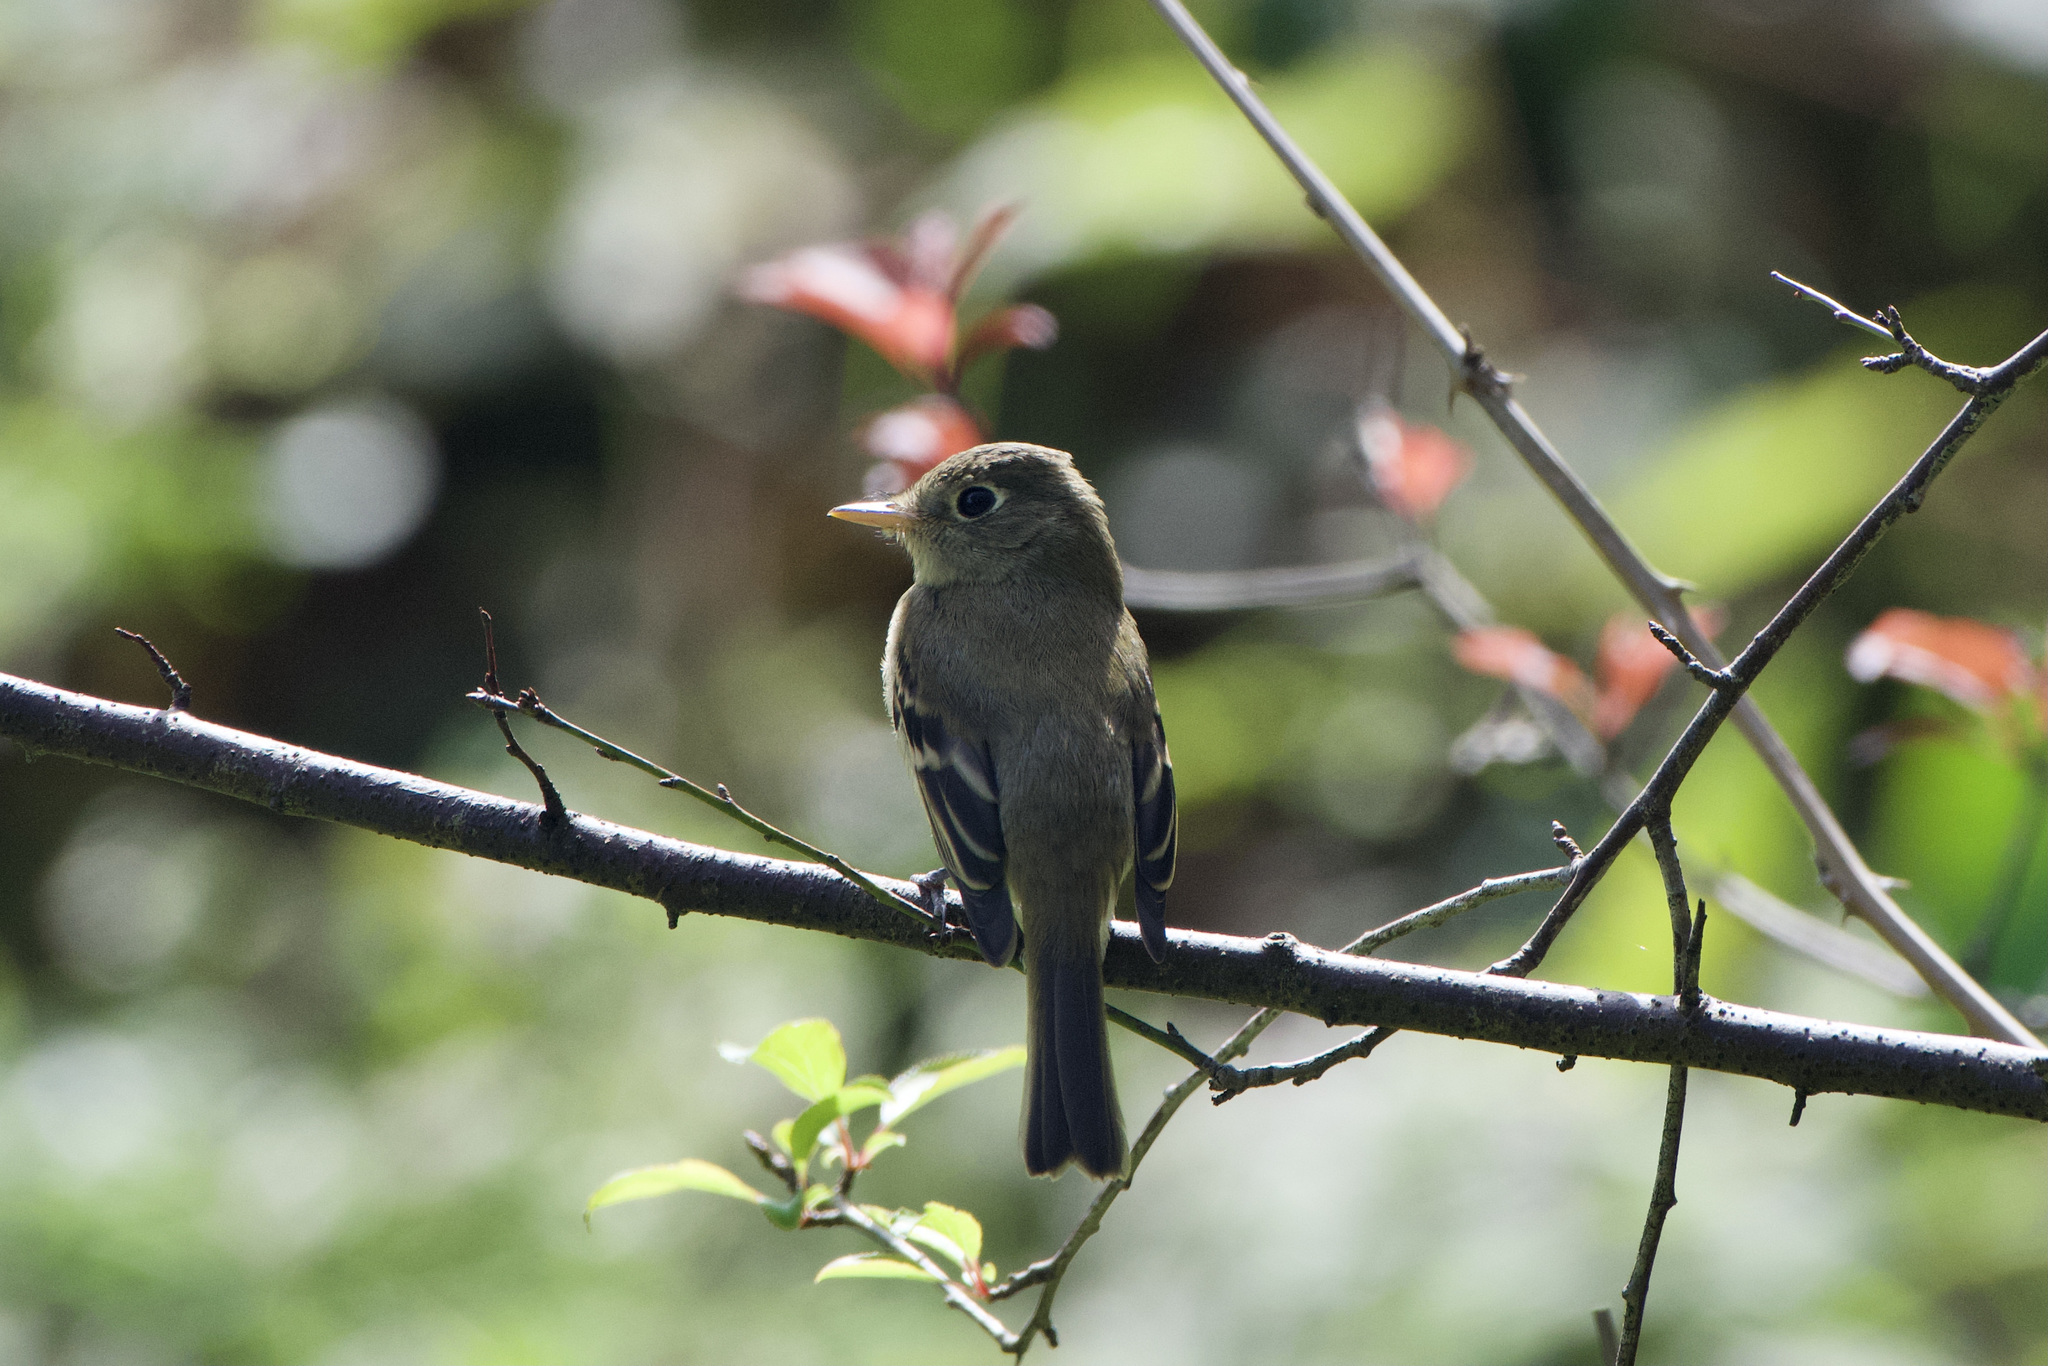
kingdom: Animalia
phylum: Chordata
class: Aves
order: Passeriformes
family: Tyrannidae
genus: Empidonax
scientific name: Empidonax difficilis
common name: Pacific-slope flycatcher
